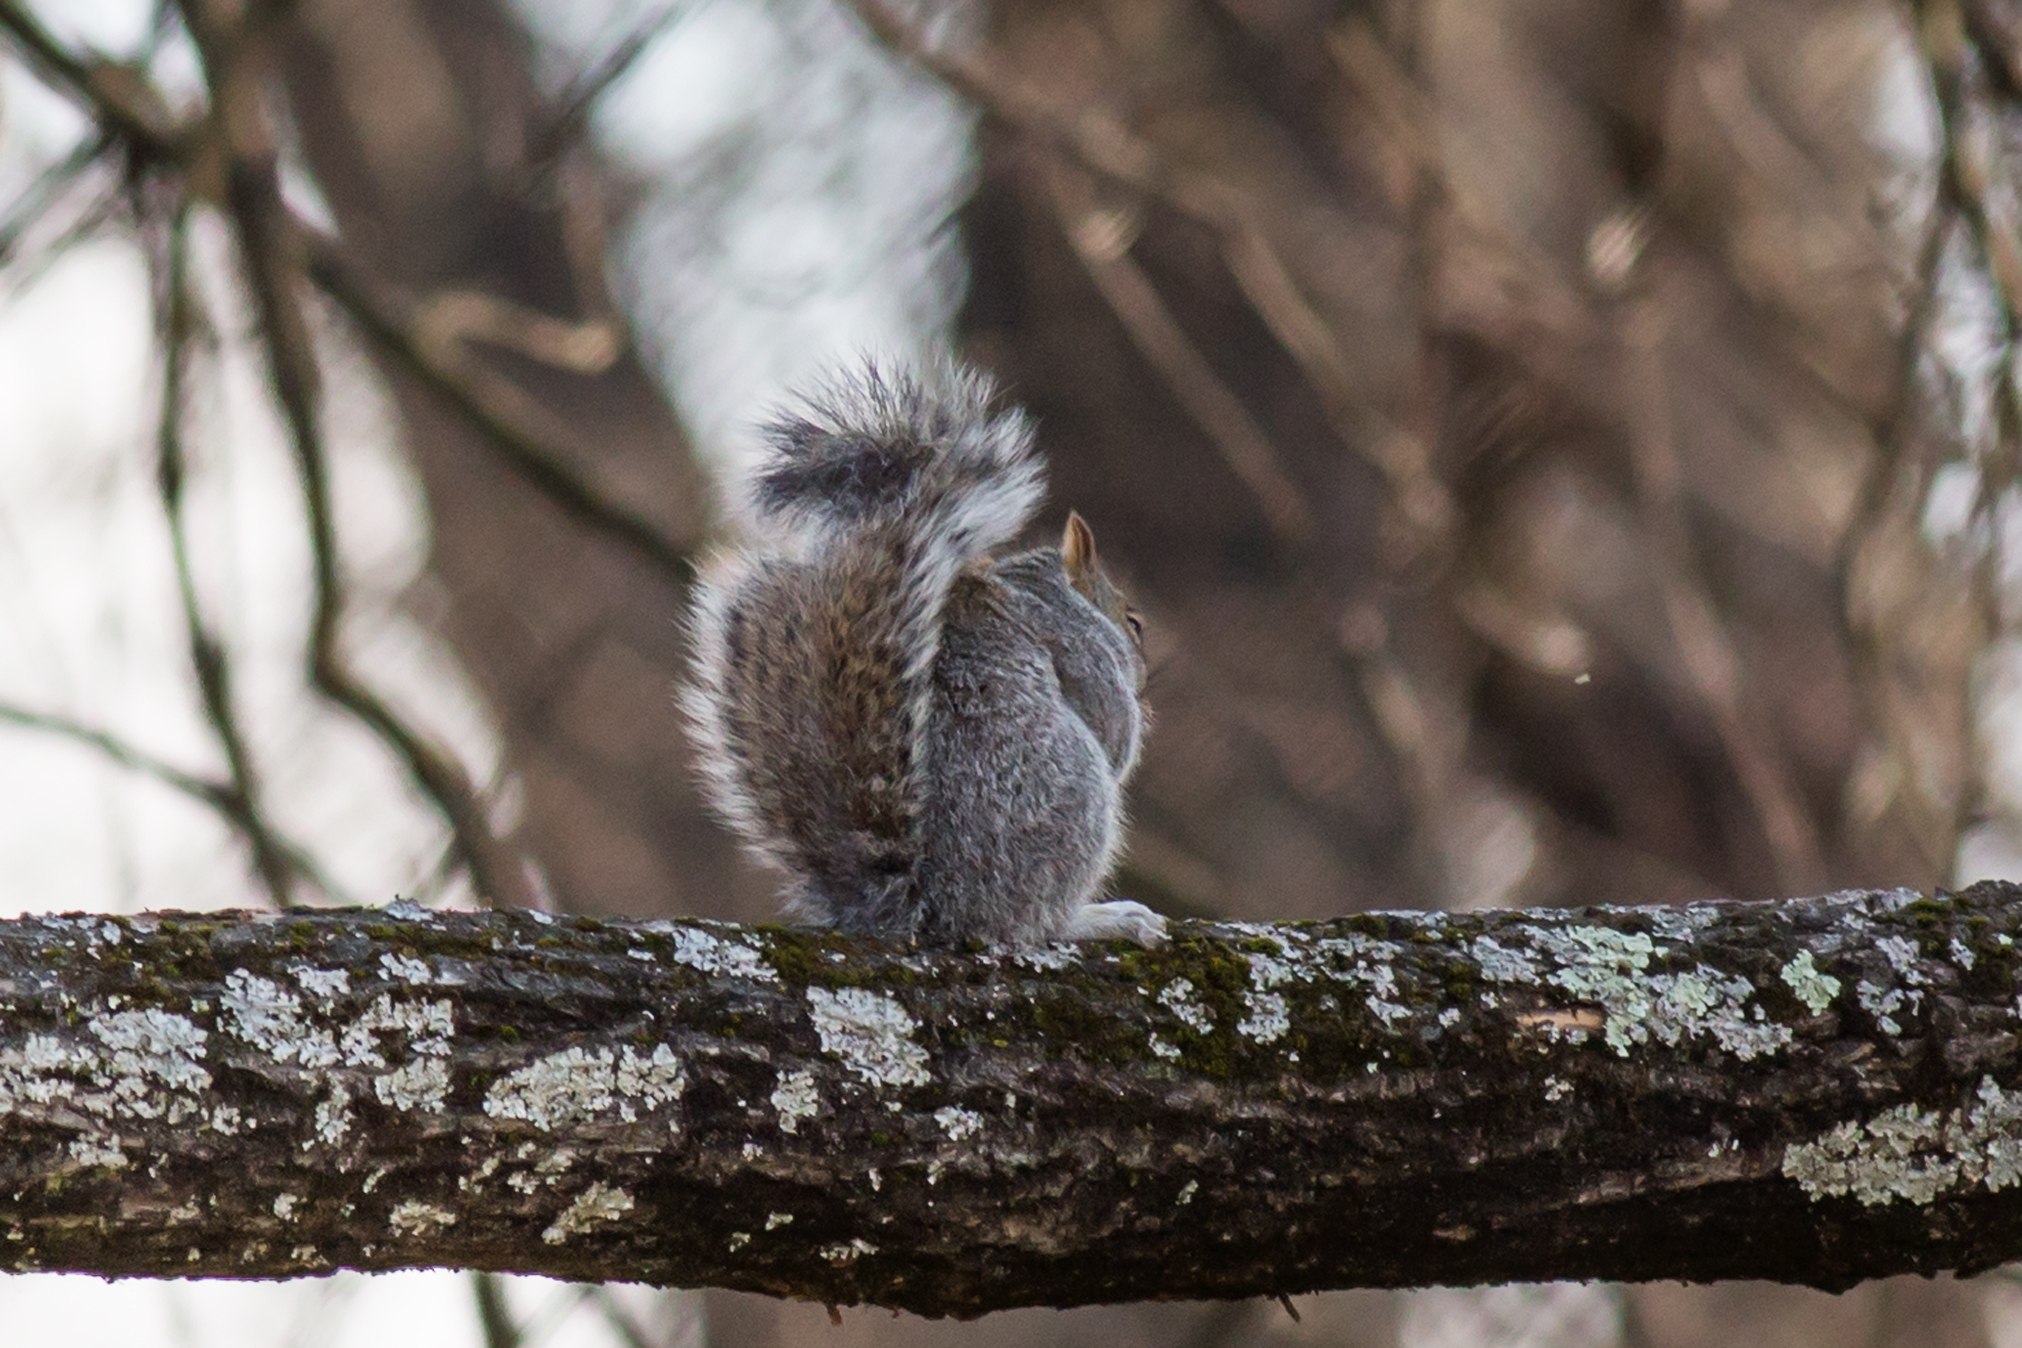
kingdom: Animalia
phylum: Chordata
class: Mammalia
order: Rodentia
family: Sciuridae
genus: Sciurus
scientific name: Sciurus carolinensis
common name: Eastern gray squirrel
